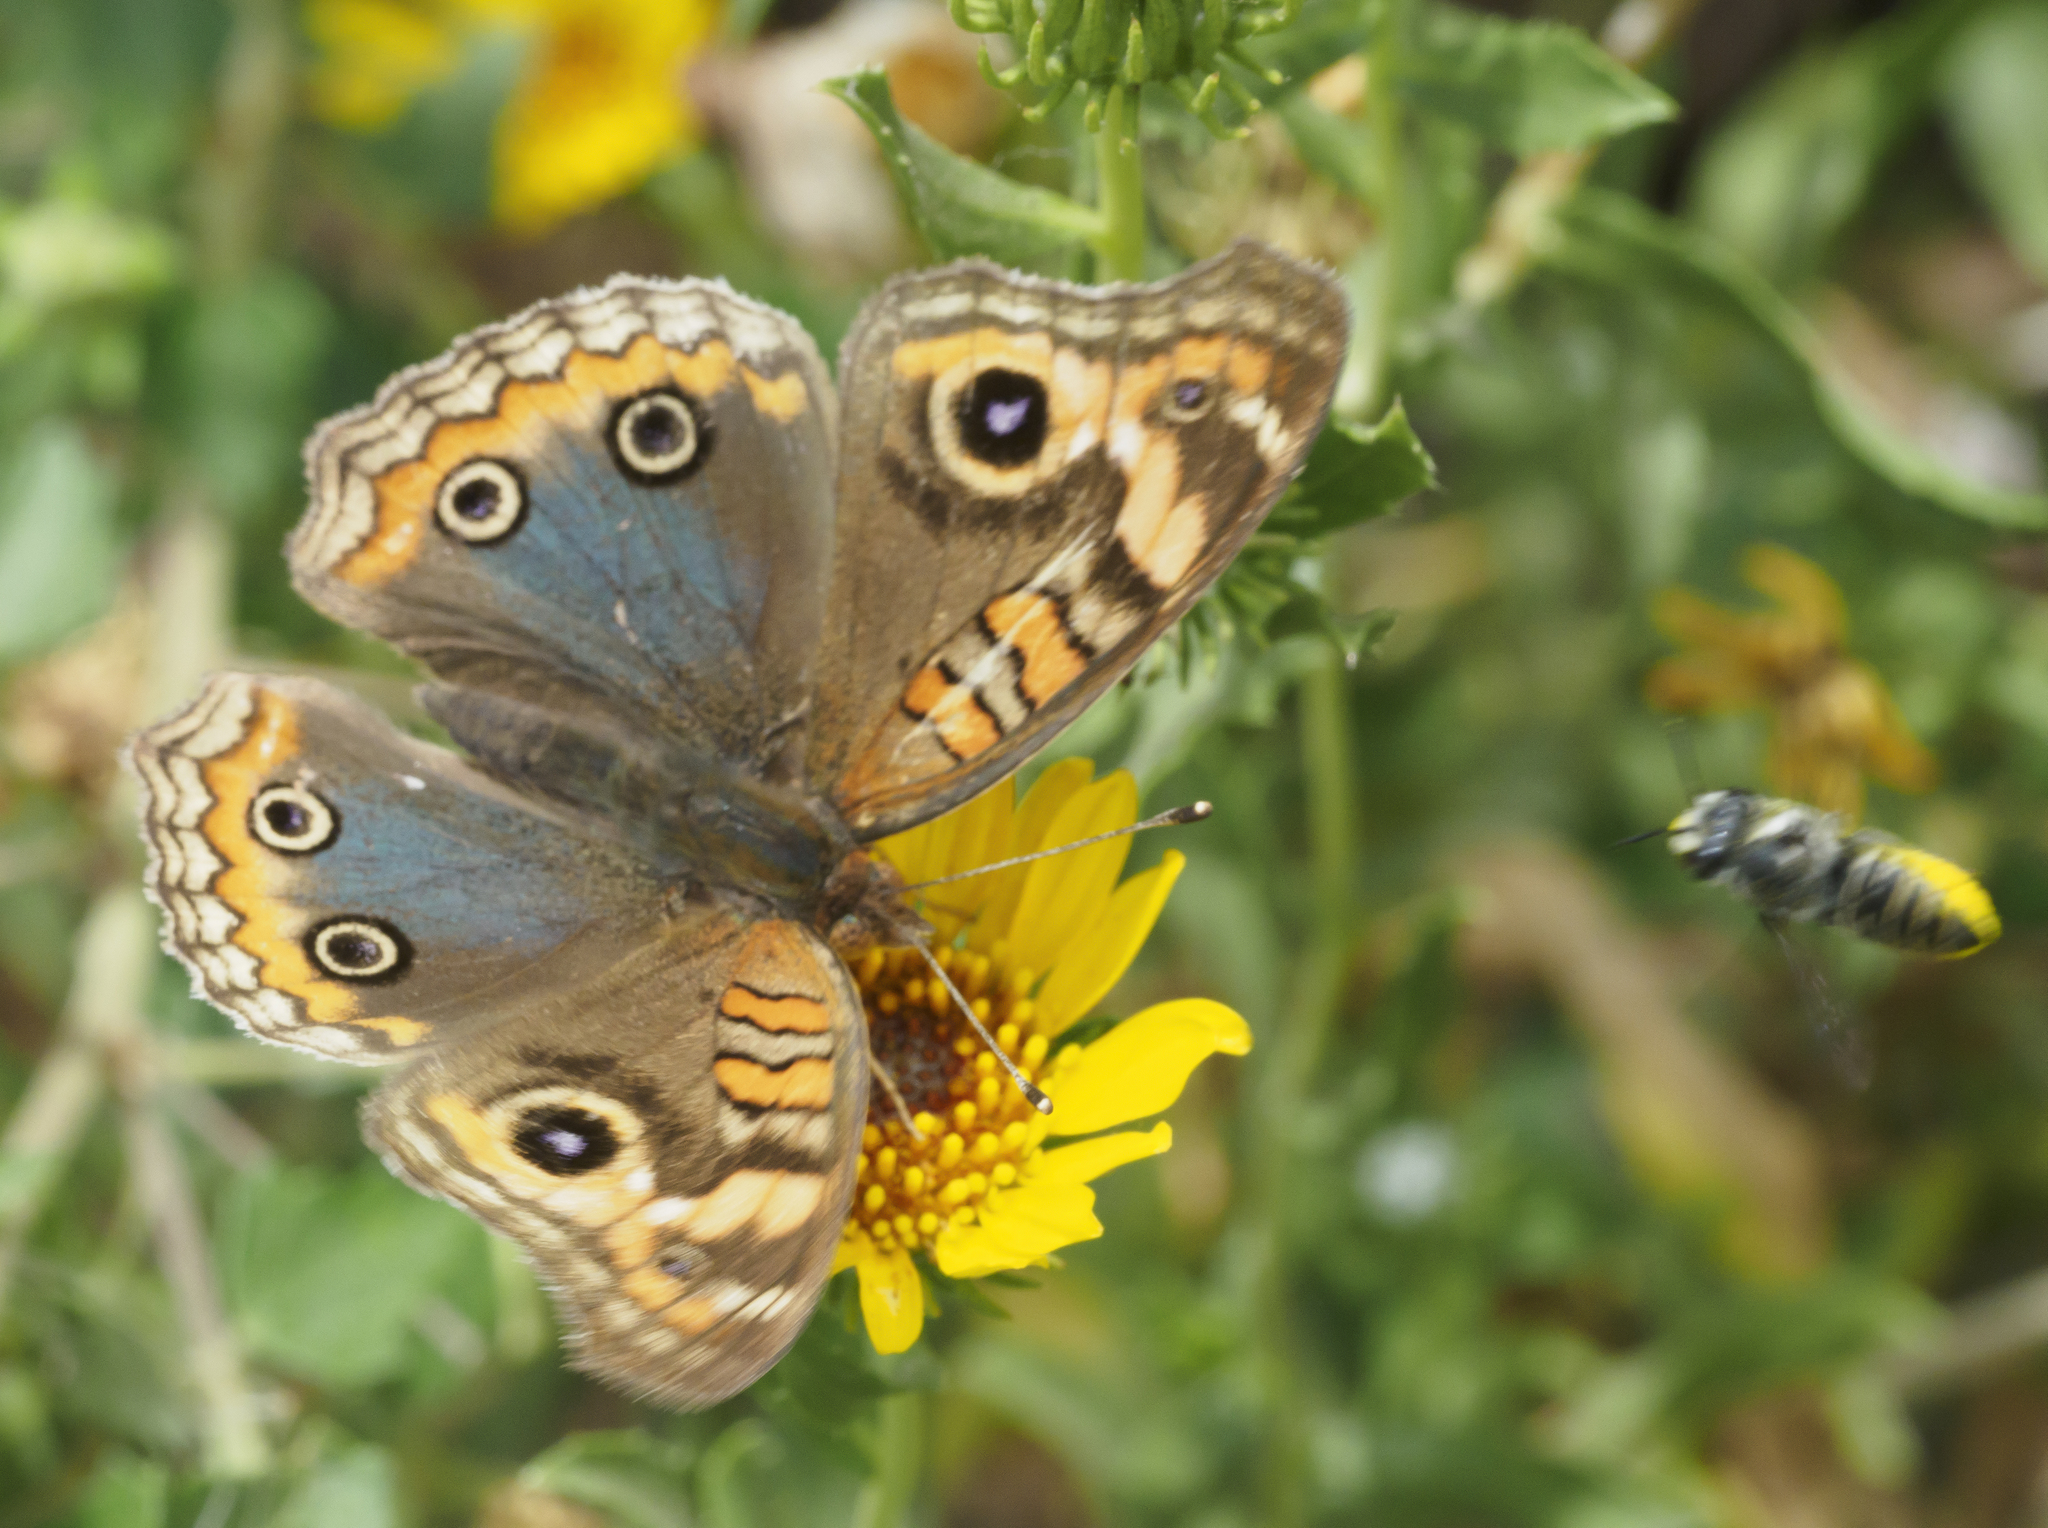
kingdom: Animalia
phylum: Arthropoda
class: Insecta
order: Lepidoptera
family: Nymphalidae
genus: Junonia
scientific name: Junonia lavinia
